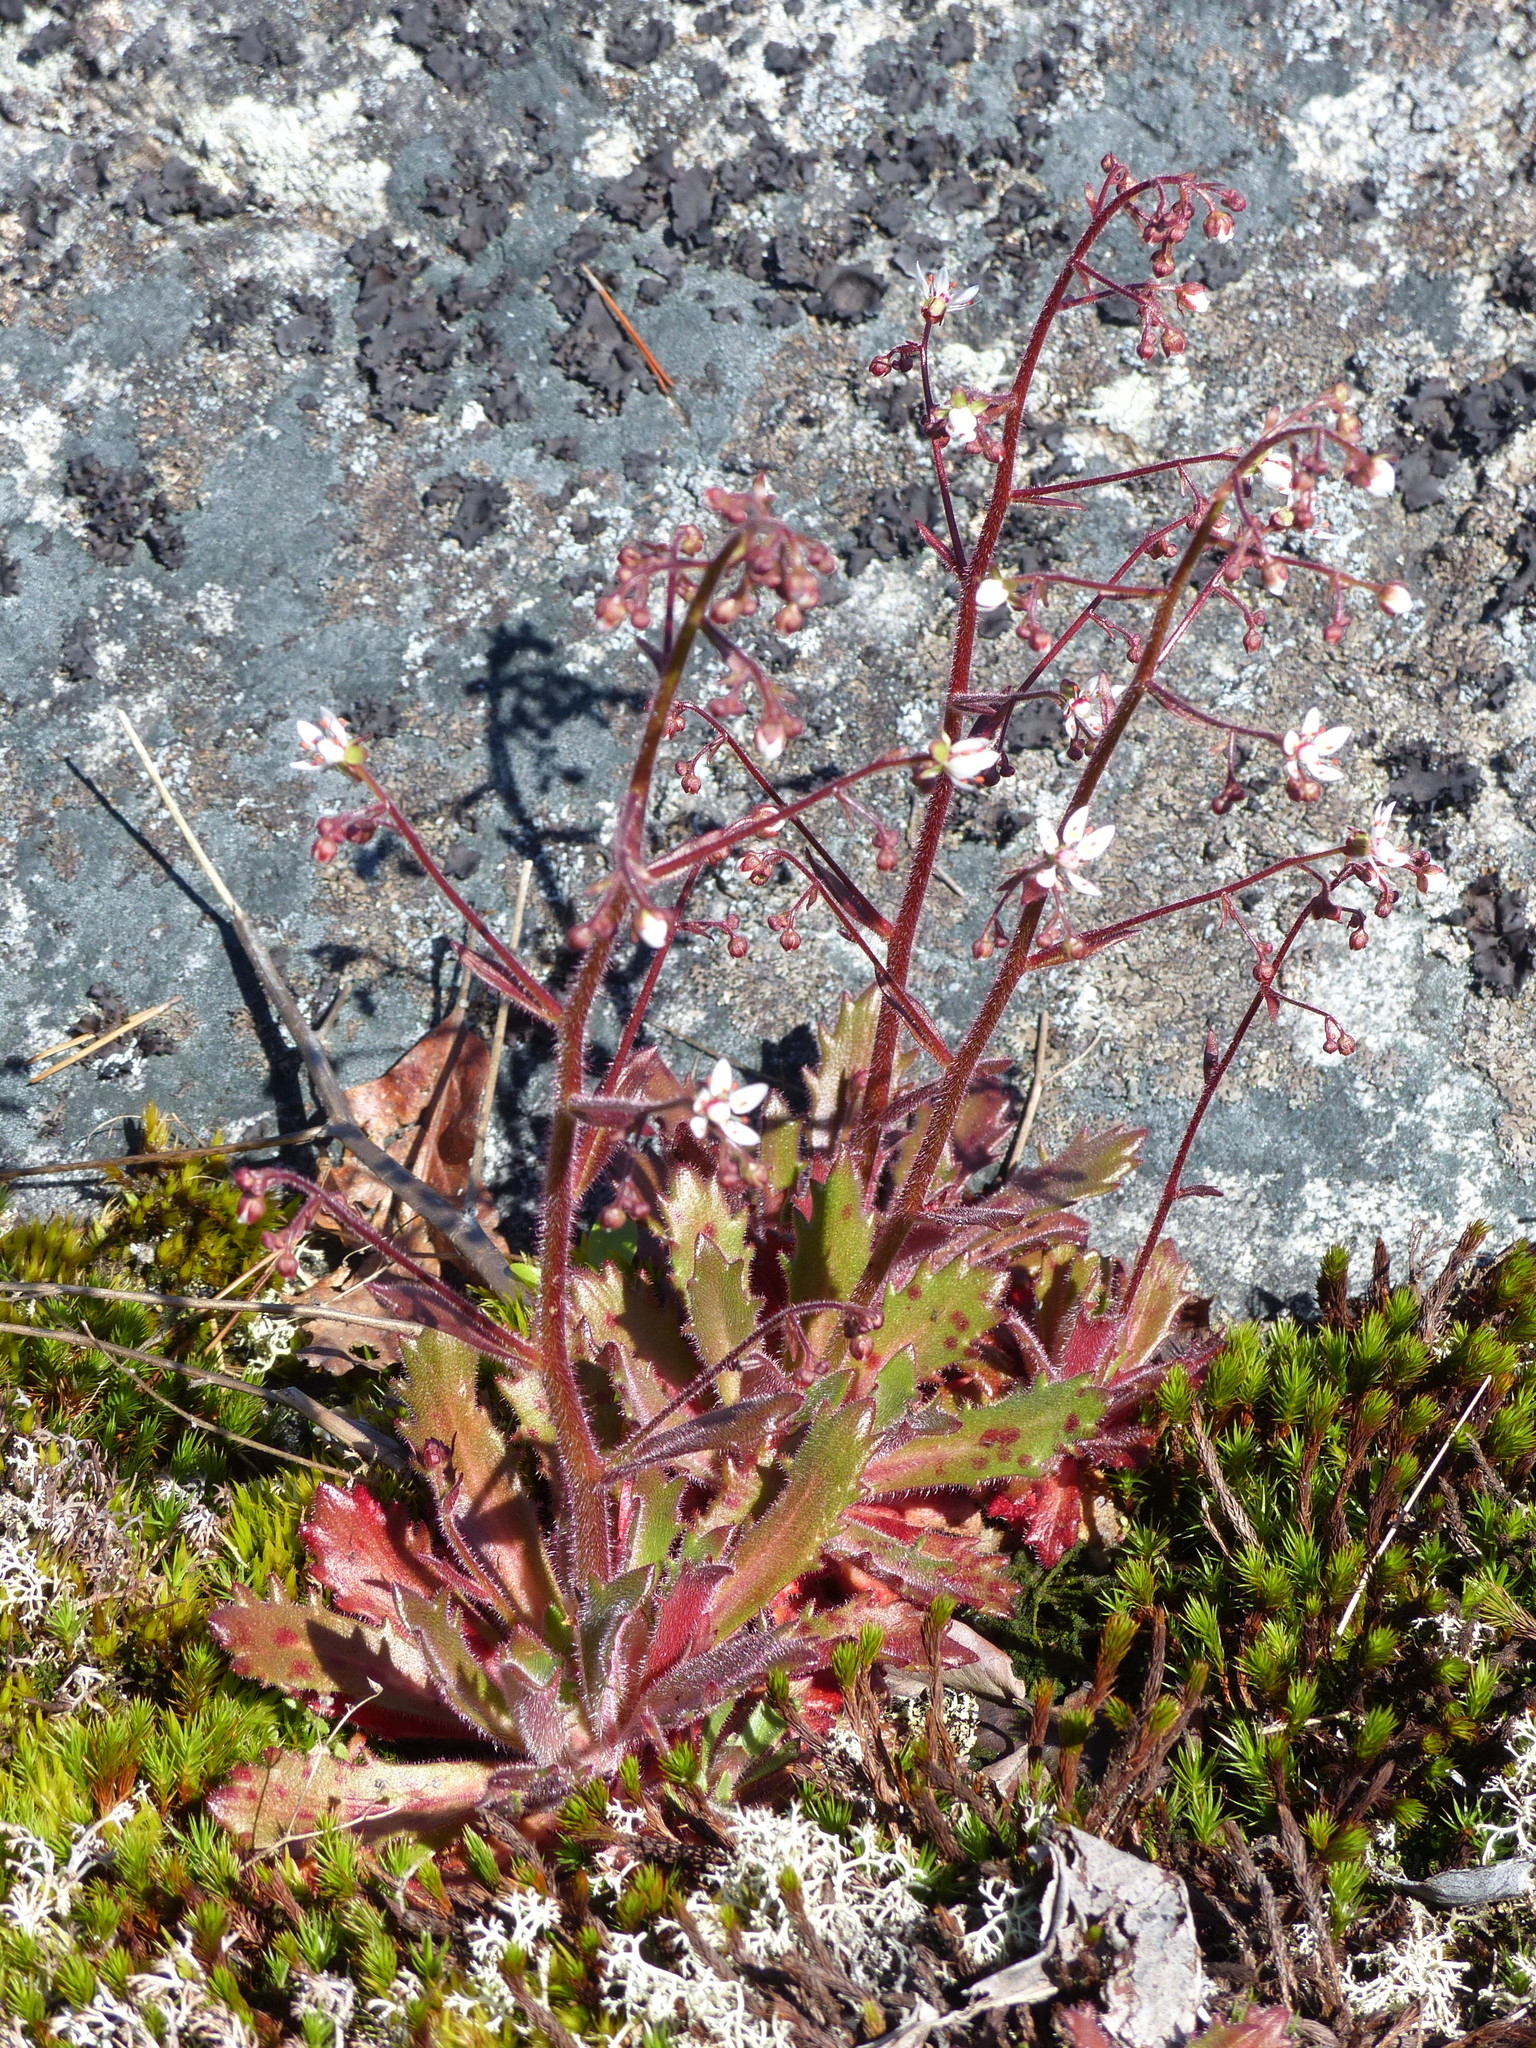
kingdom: Plantae
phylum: Tracheophyta
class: Magnoliopsida
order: Saxifragales
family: Saxifragaceae
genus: Micranthes
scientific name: Micranthes ferruginea
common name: Rusty saxifrage
